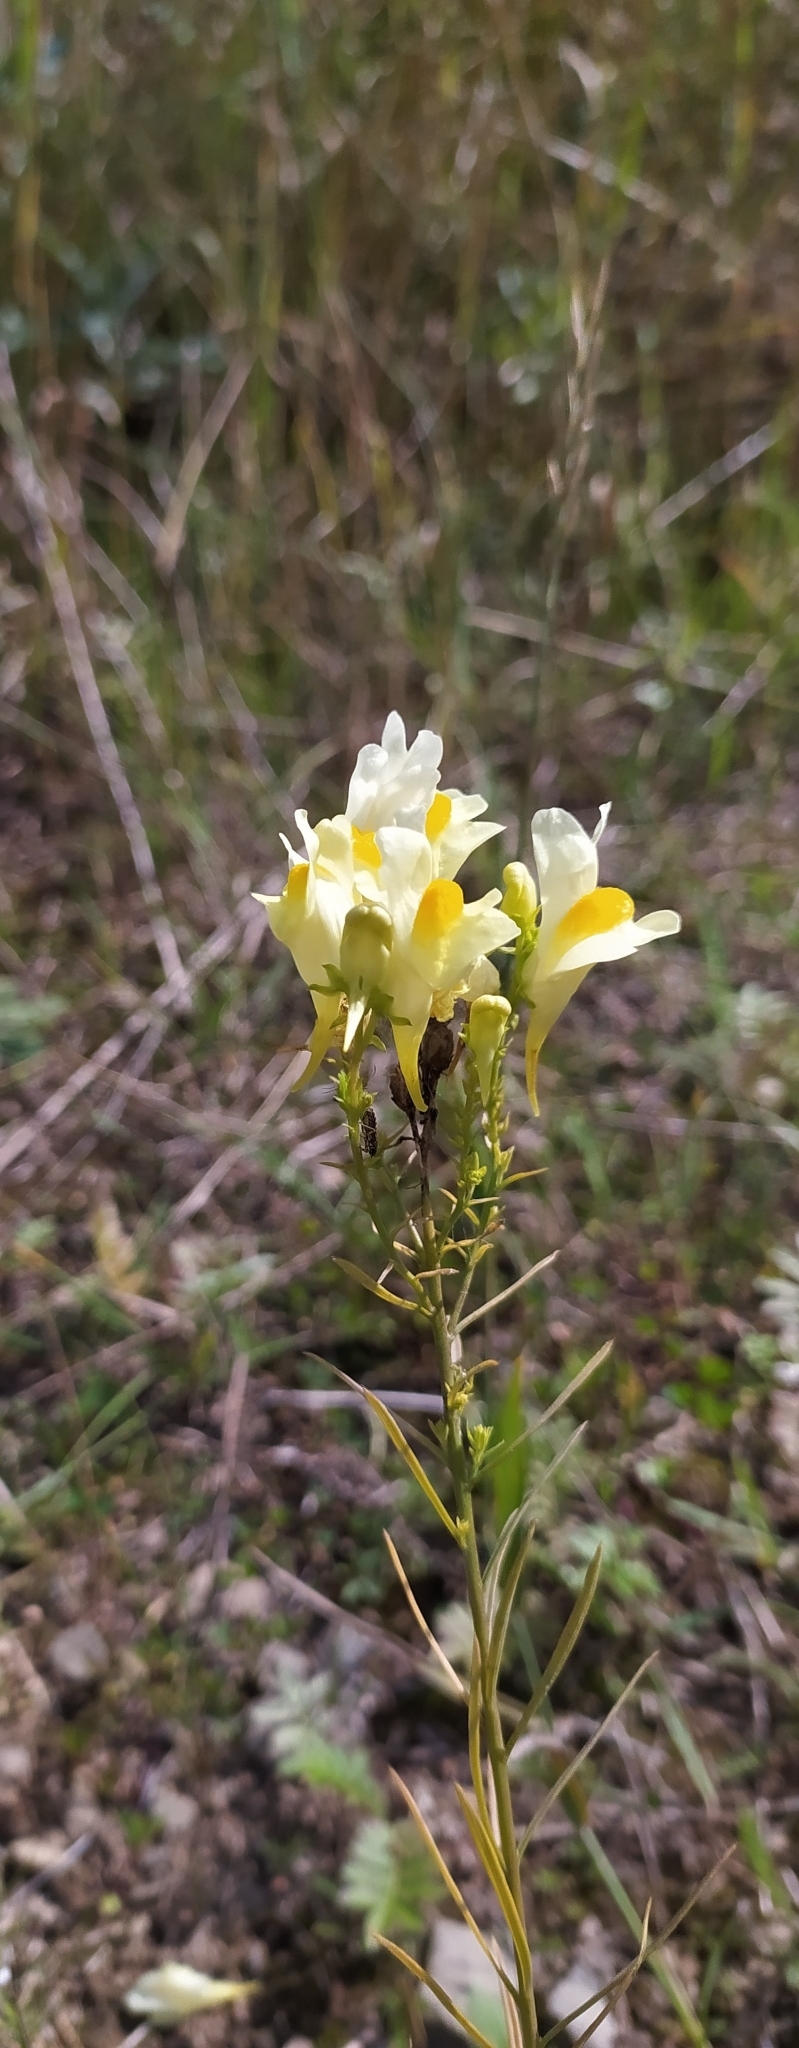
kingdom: Plantae
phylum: Tracheophyta
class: Magnoliopsida
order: Lamiales
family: Plantaginaceae
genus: Linaria
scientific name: Linaria vulgaris
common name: Butter and eggs
